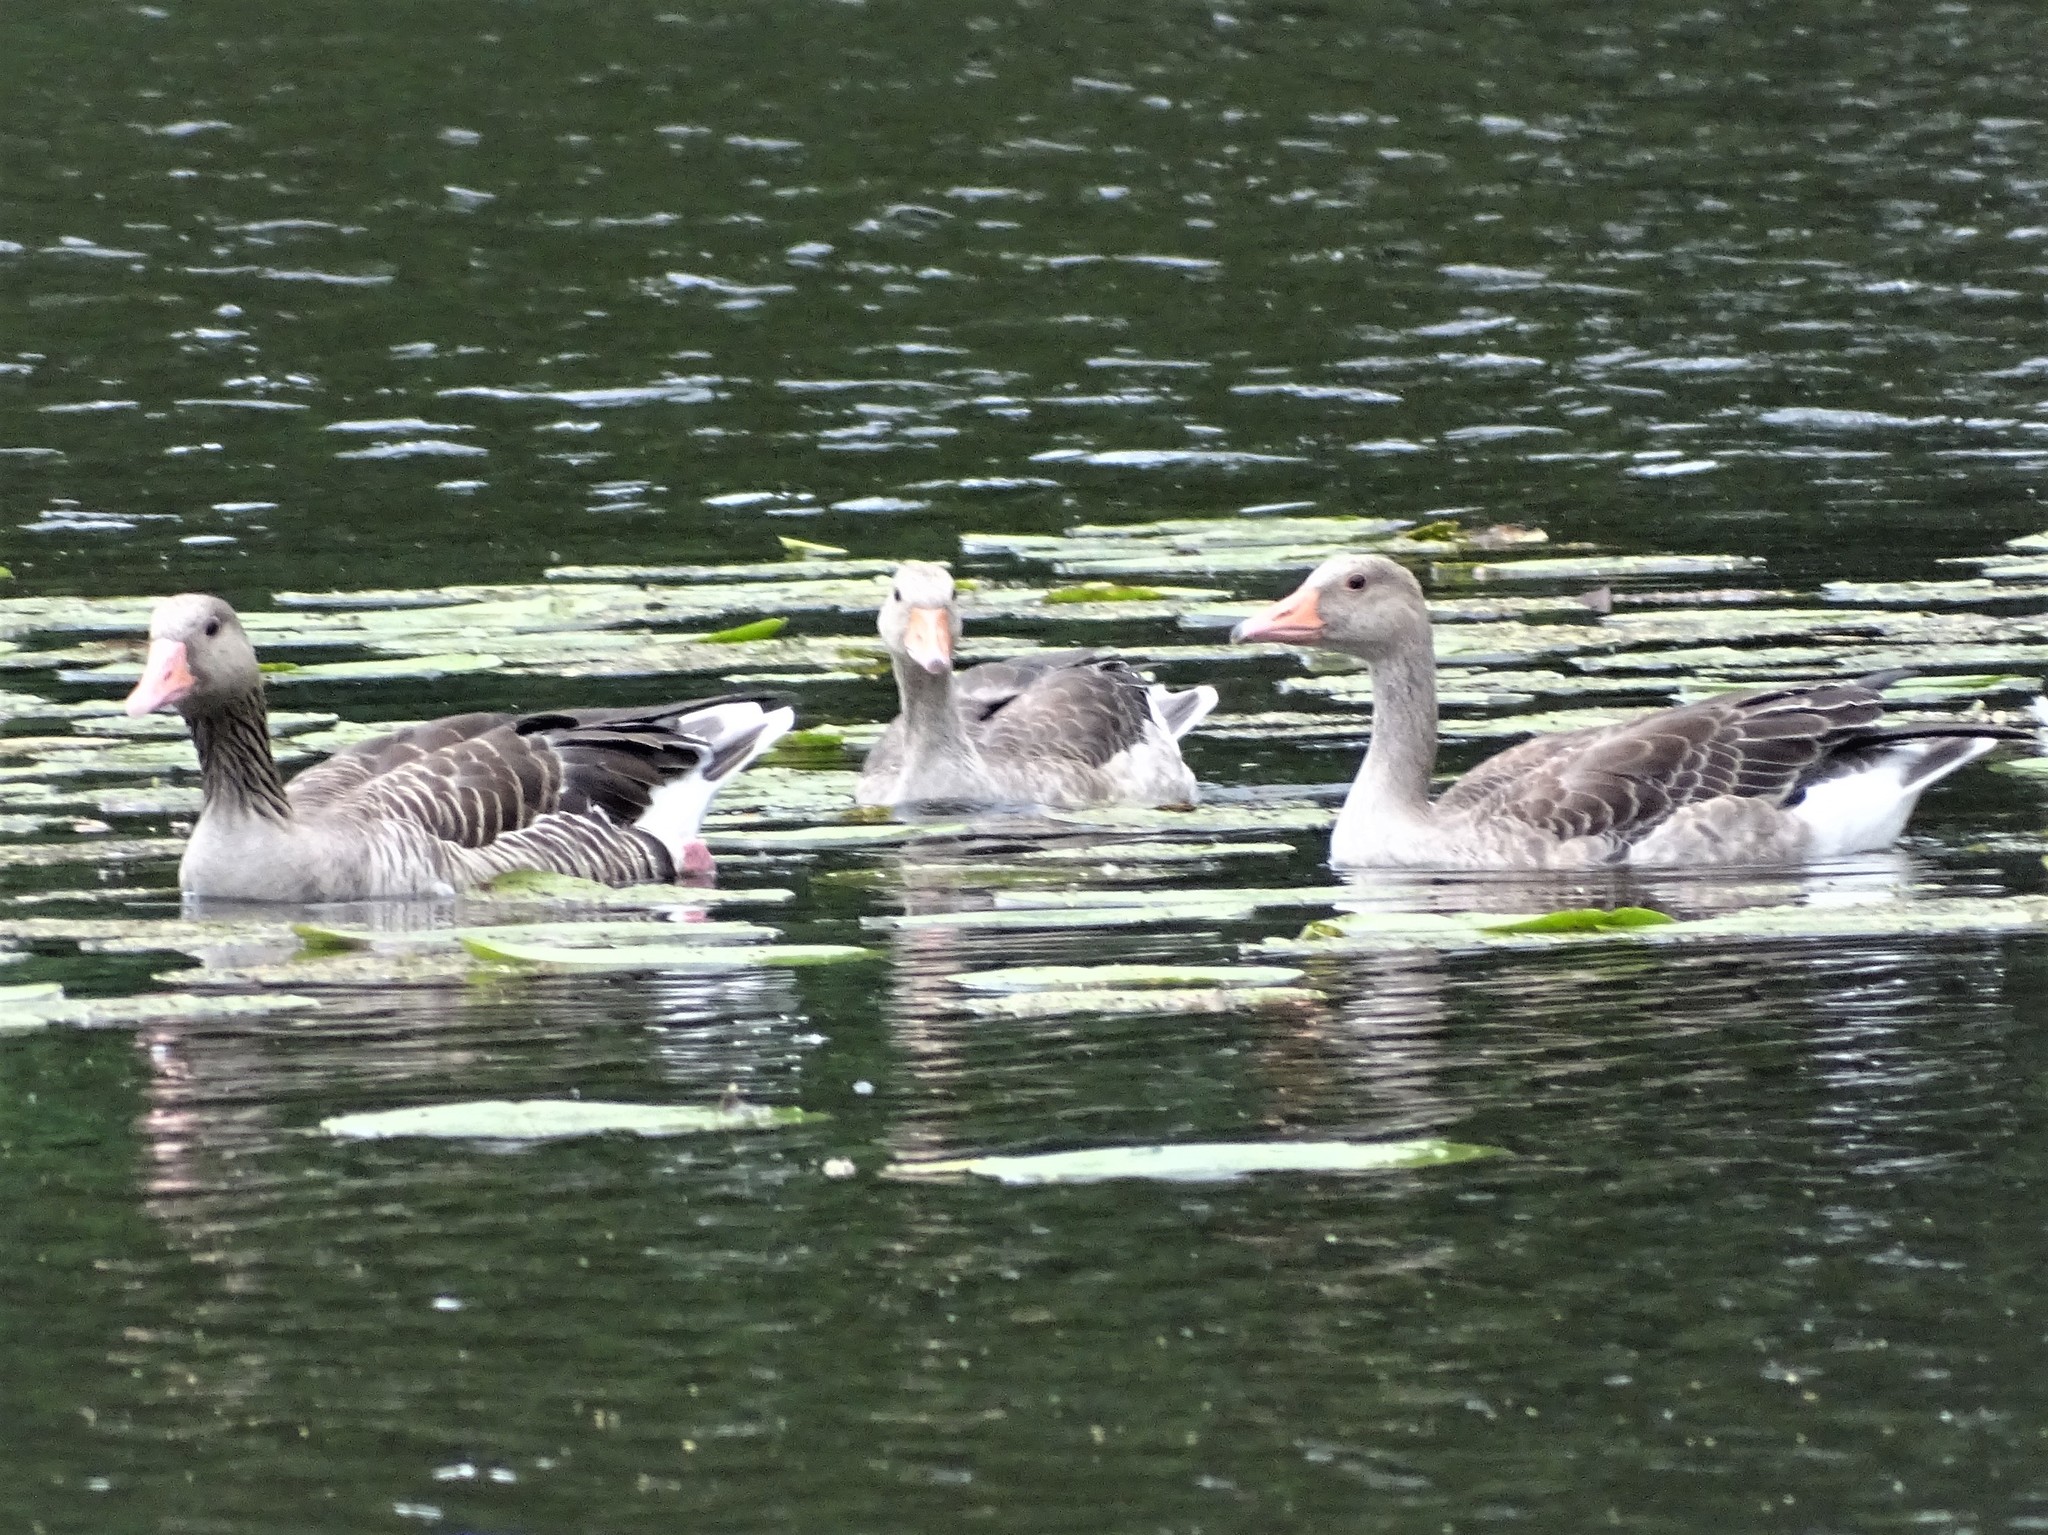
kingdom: Animalia
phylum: Chordata
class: Aves
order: Anseriformes
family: Anatidae
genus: Anser
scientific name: Anser anser
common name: Greylag goose
